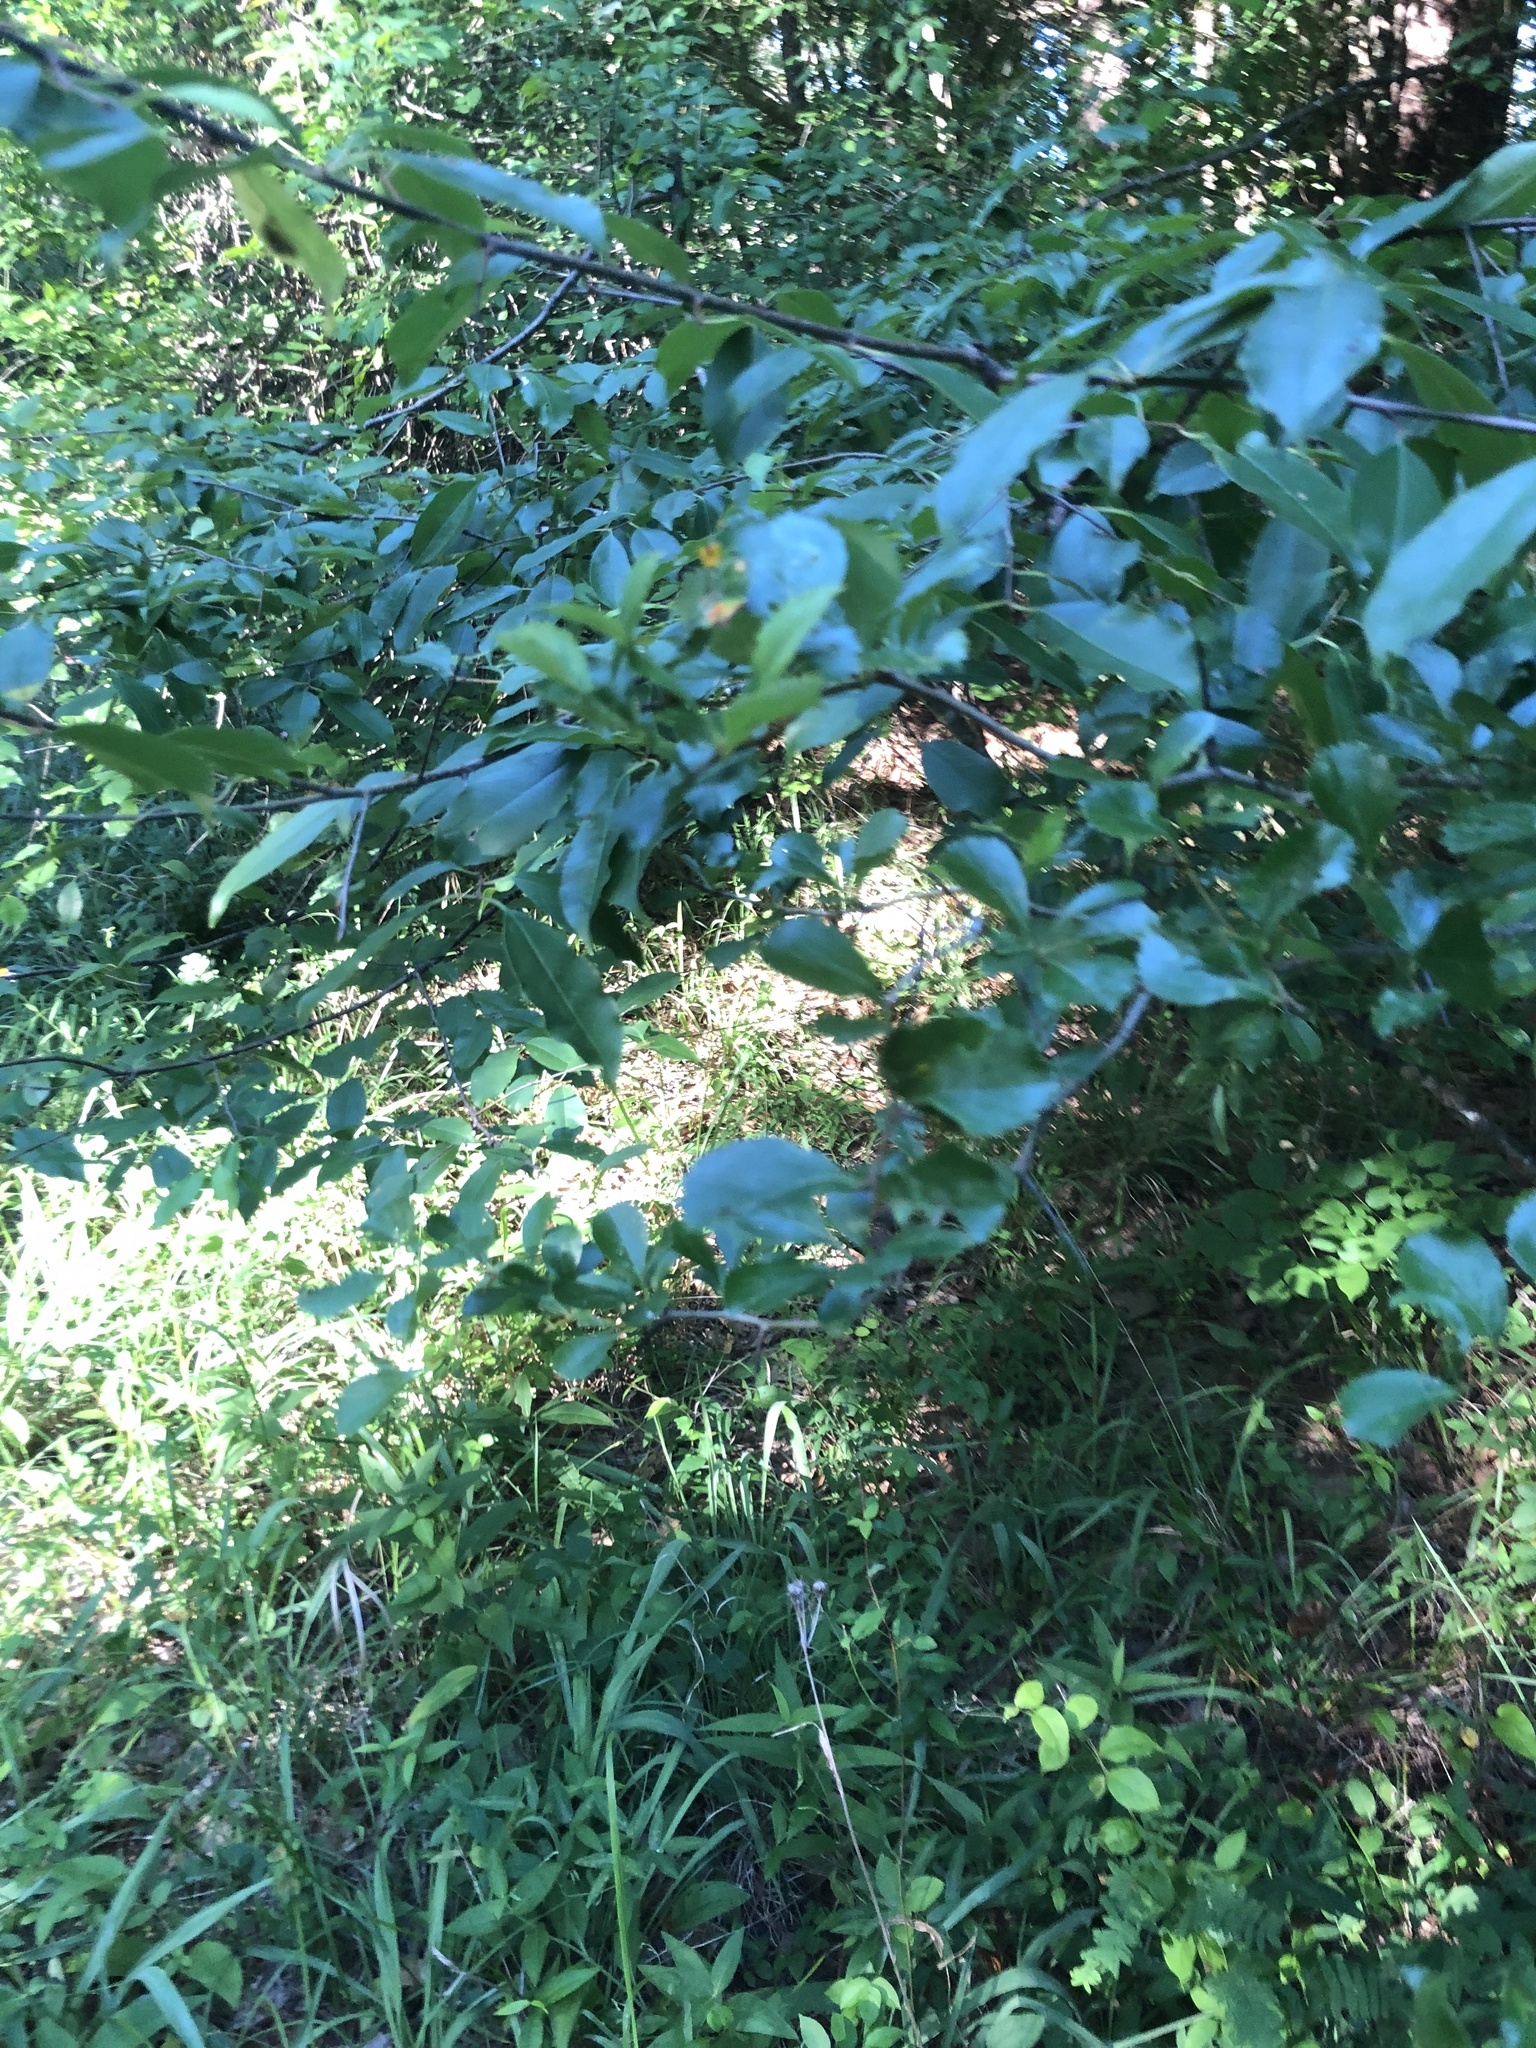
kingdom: Plantae
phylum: Tracheophyta
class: Magnoliopsida
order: Rosales
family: Rosaceae
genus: Crataegus
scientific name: Crataegus berberifolia
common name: Barberry hawthorn
